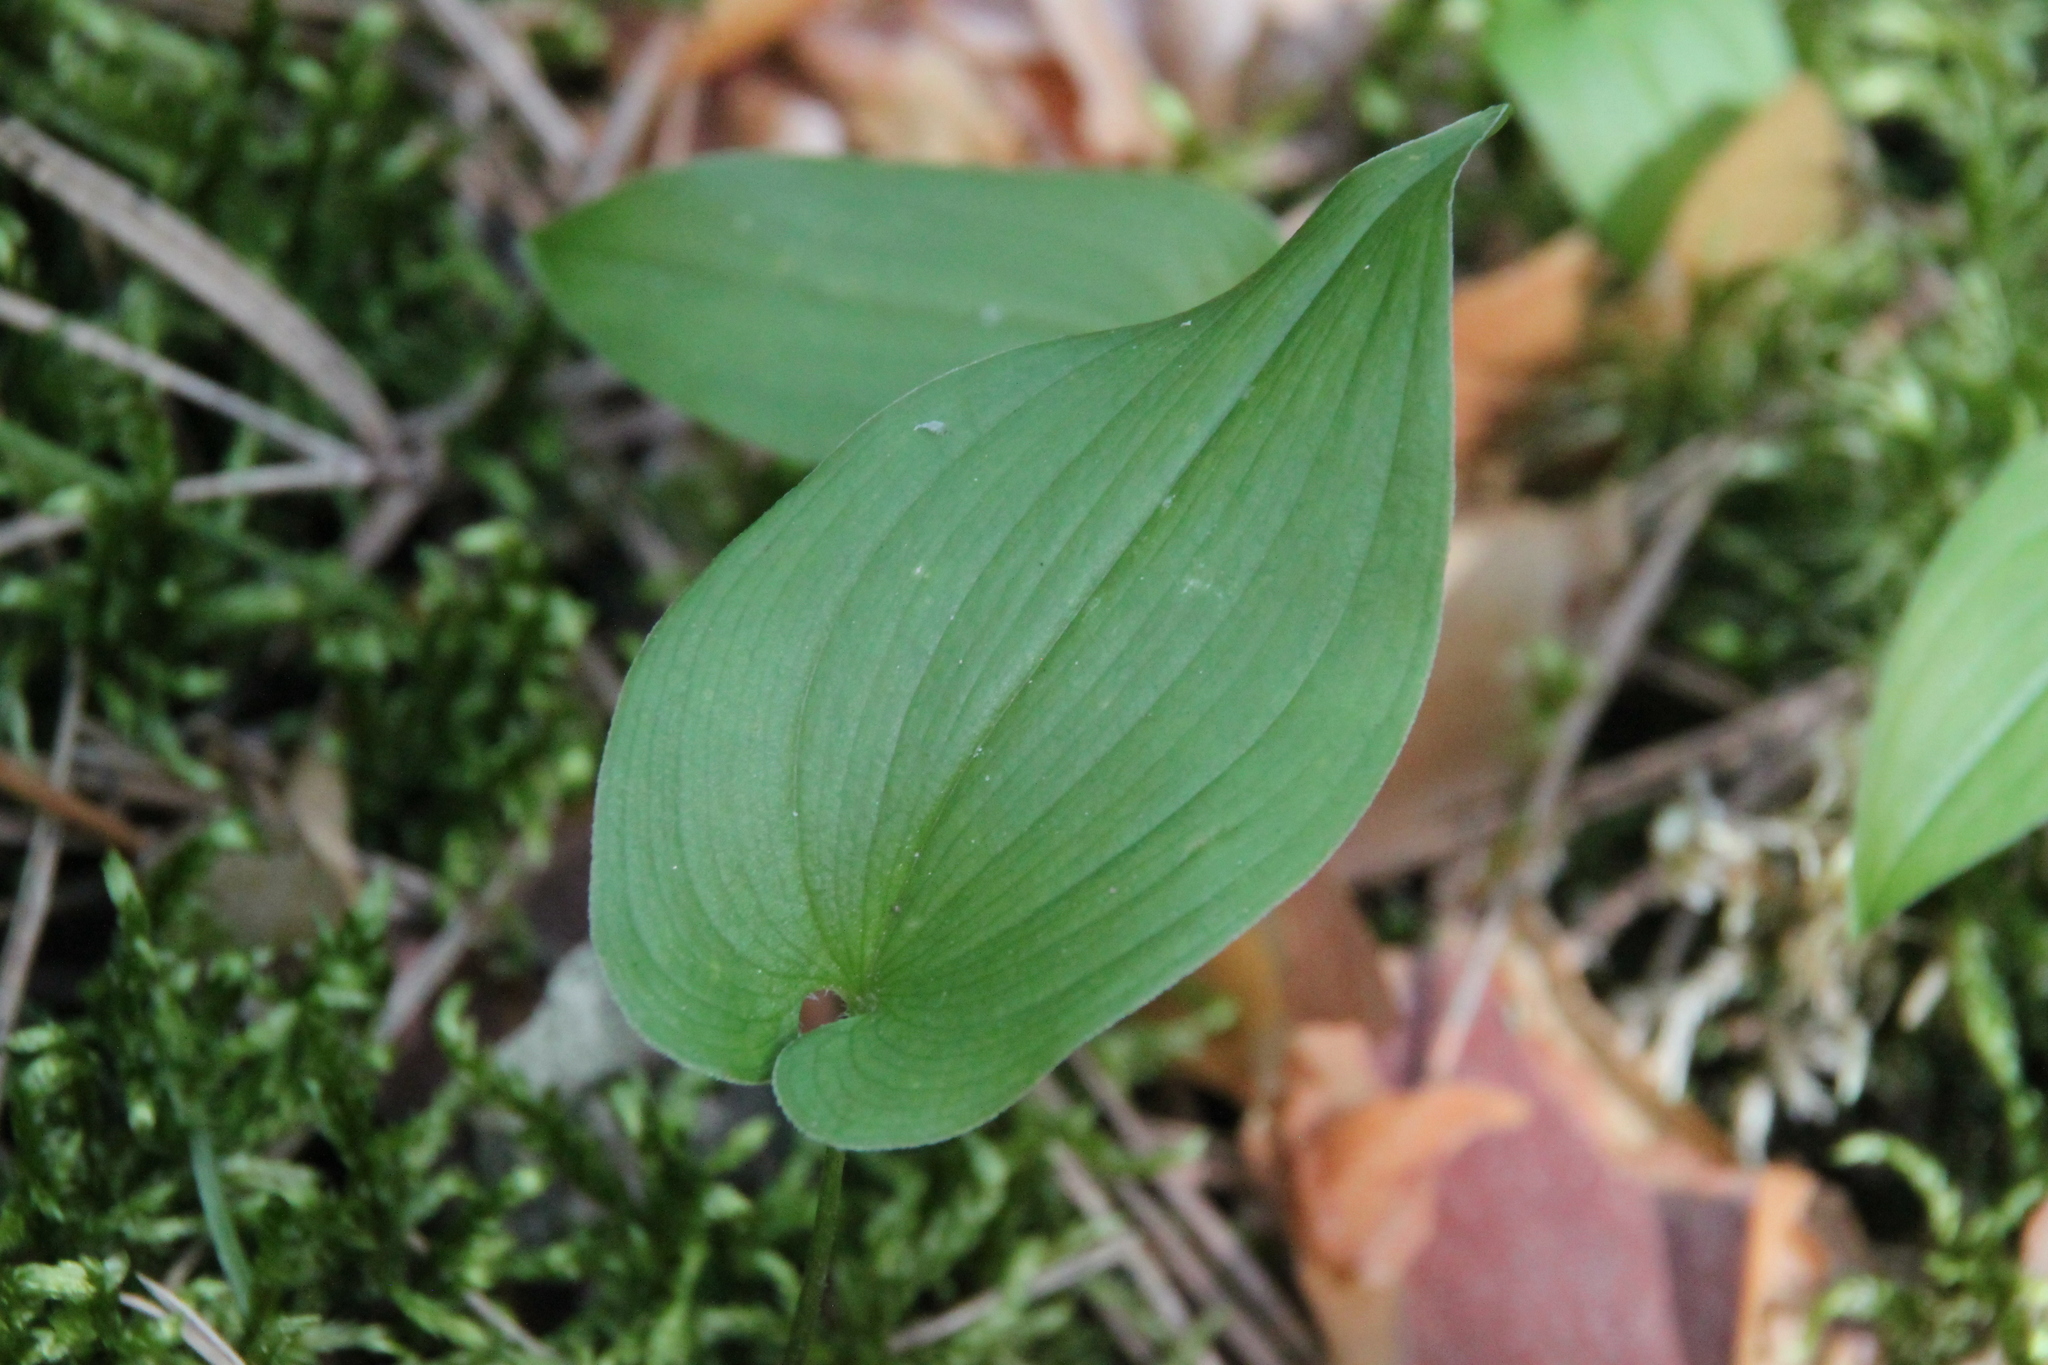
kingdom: Plantae
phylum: Tracheophyta
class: Liliopsida
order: Asparagales
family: Asparagaceae
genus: Maianthemum
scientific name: Maianthemum bifolium
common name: May lily
